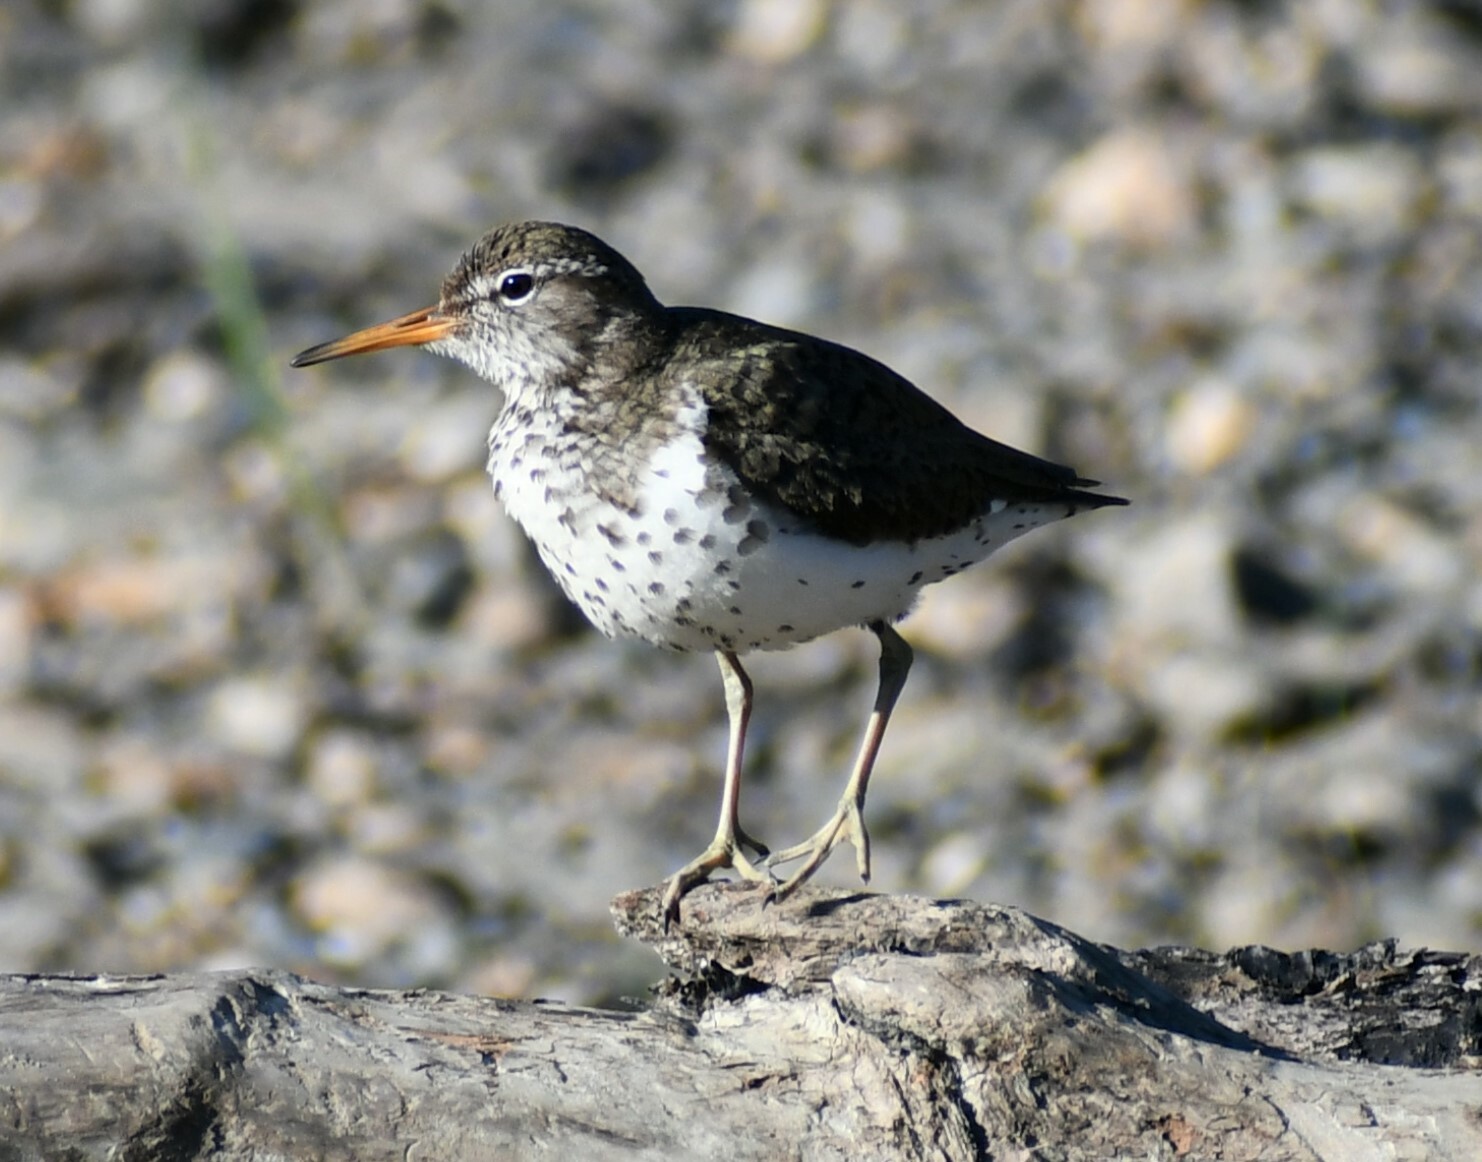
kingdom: Animalia
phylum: Chordata
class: Aves
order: Charadriiformes
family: Scolopacidae
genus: Actitis
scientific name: Actitis macularius
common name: Spotted sandpiper
